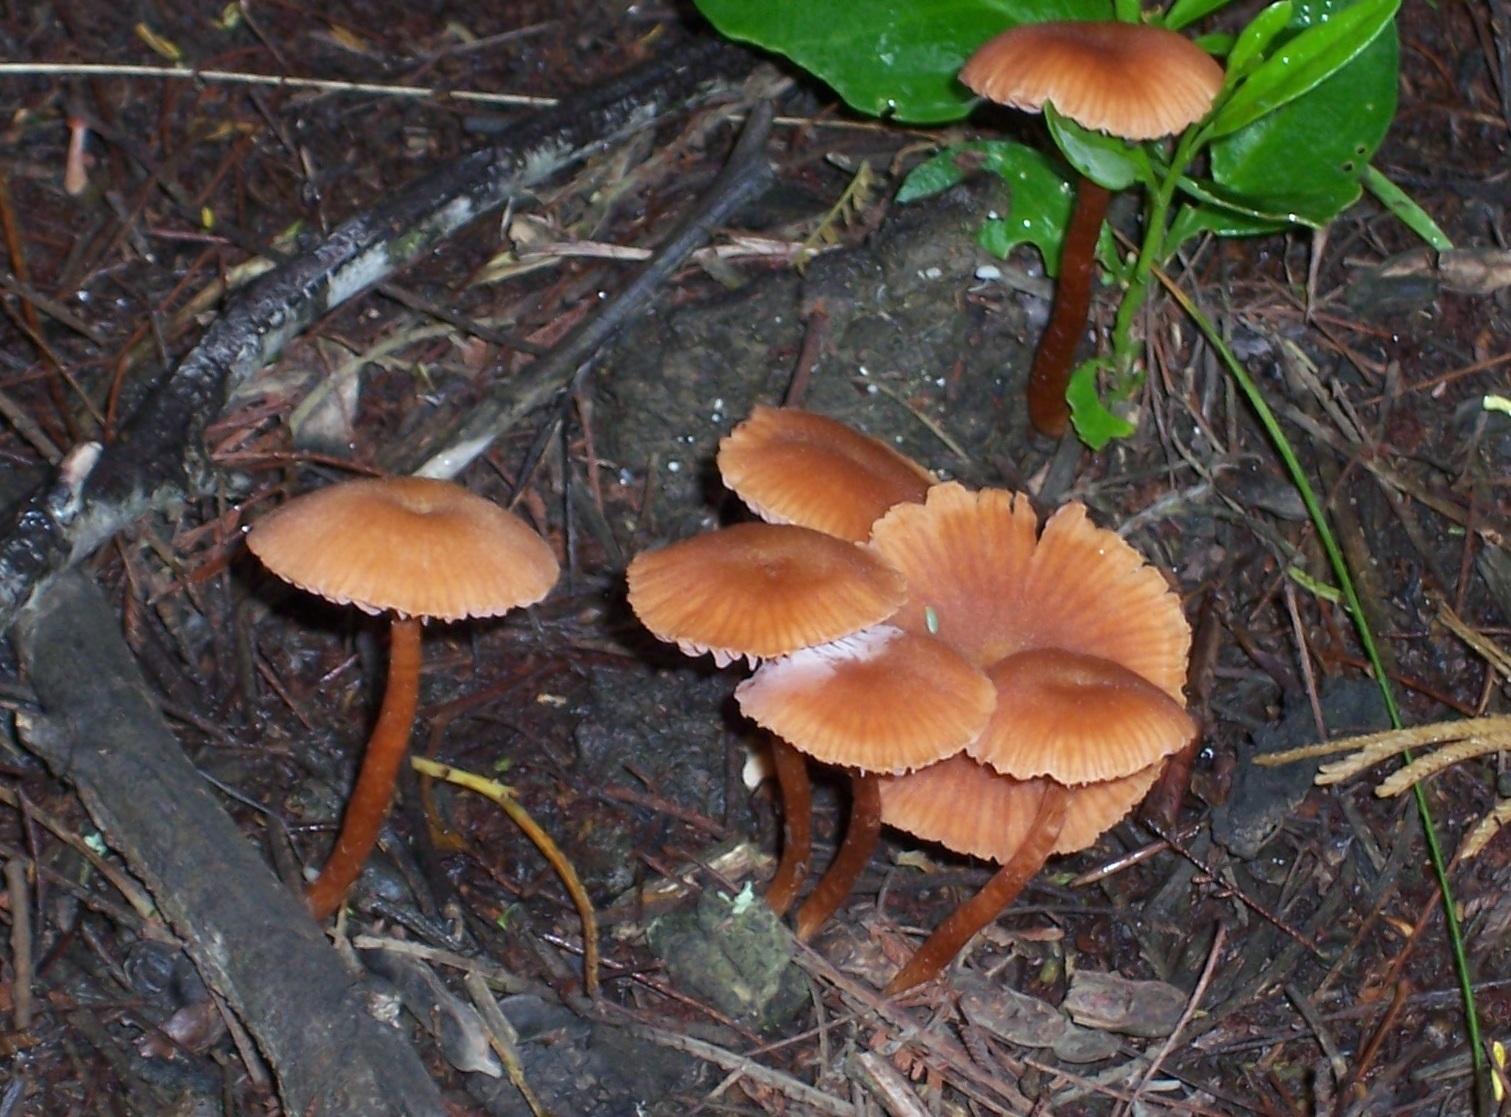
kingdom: Fungi
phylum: Basidiomycota
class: Agaricomycetes
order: Agaricales
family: Hydnangiaceae
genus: Laccaria
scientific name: Laccaria laccata
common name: Deceiver
